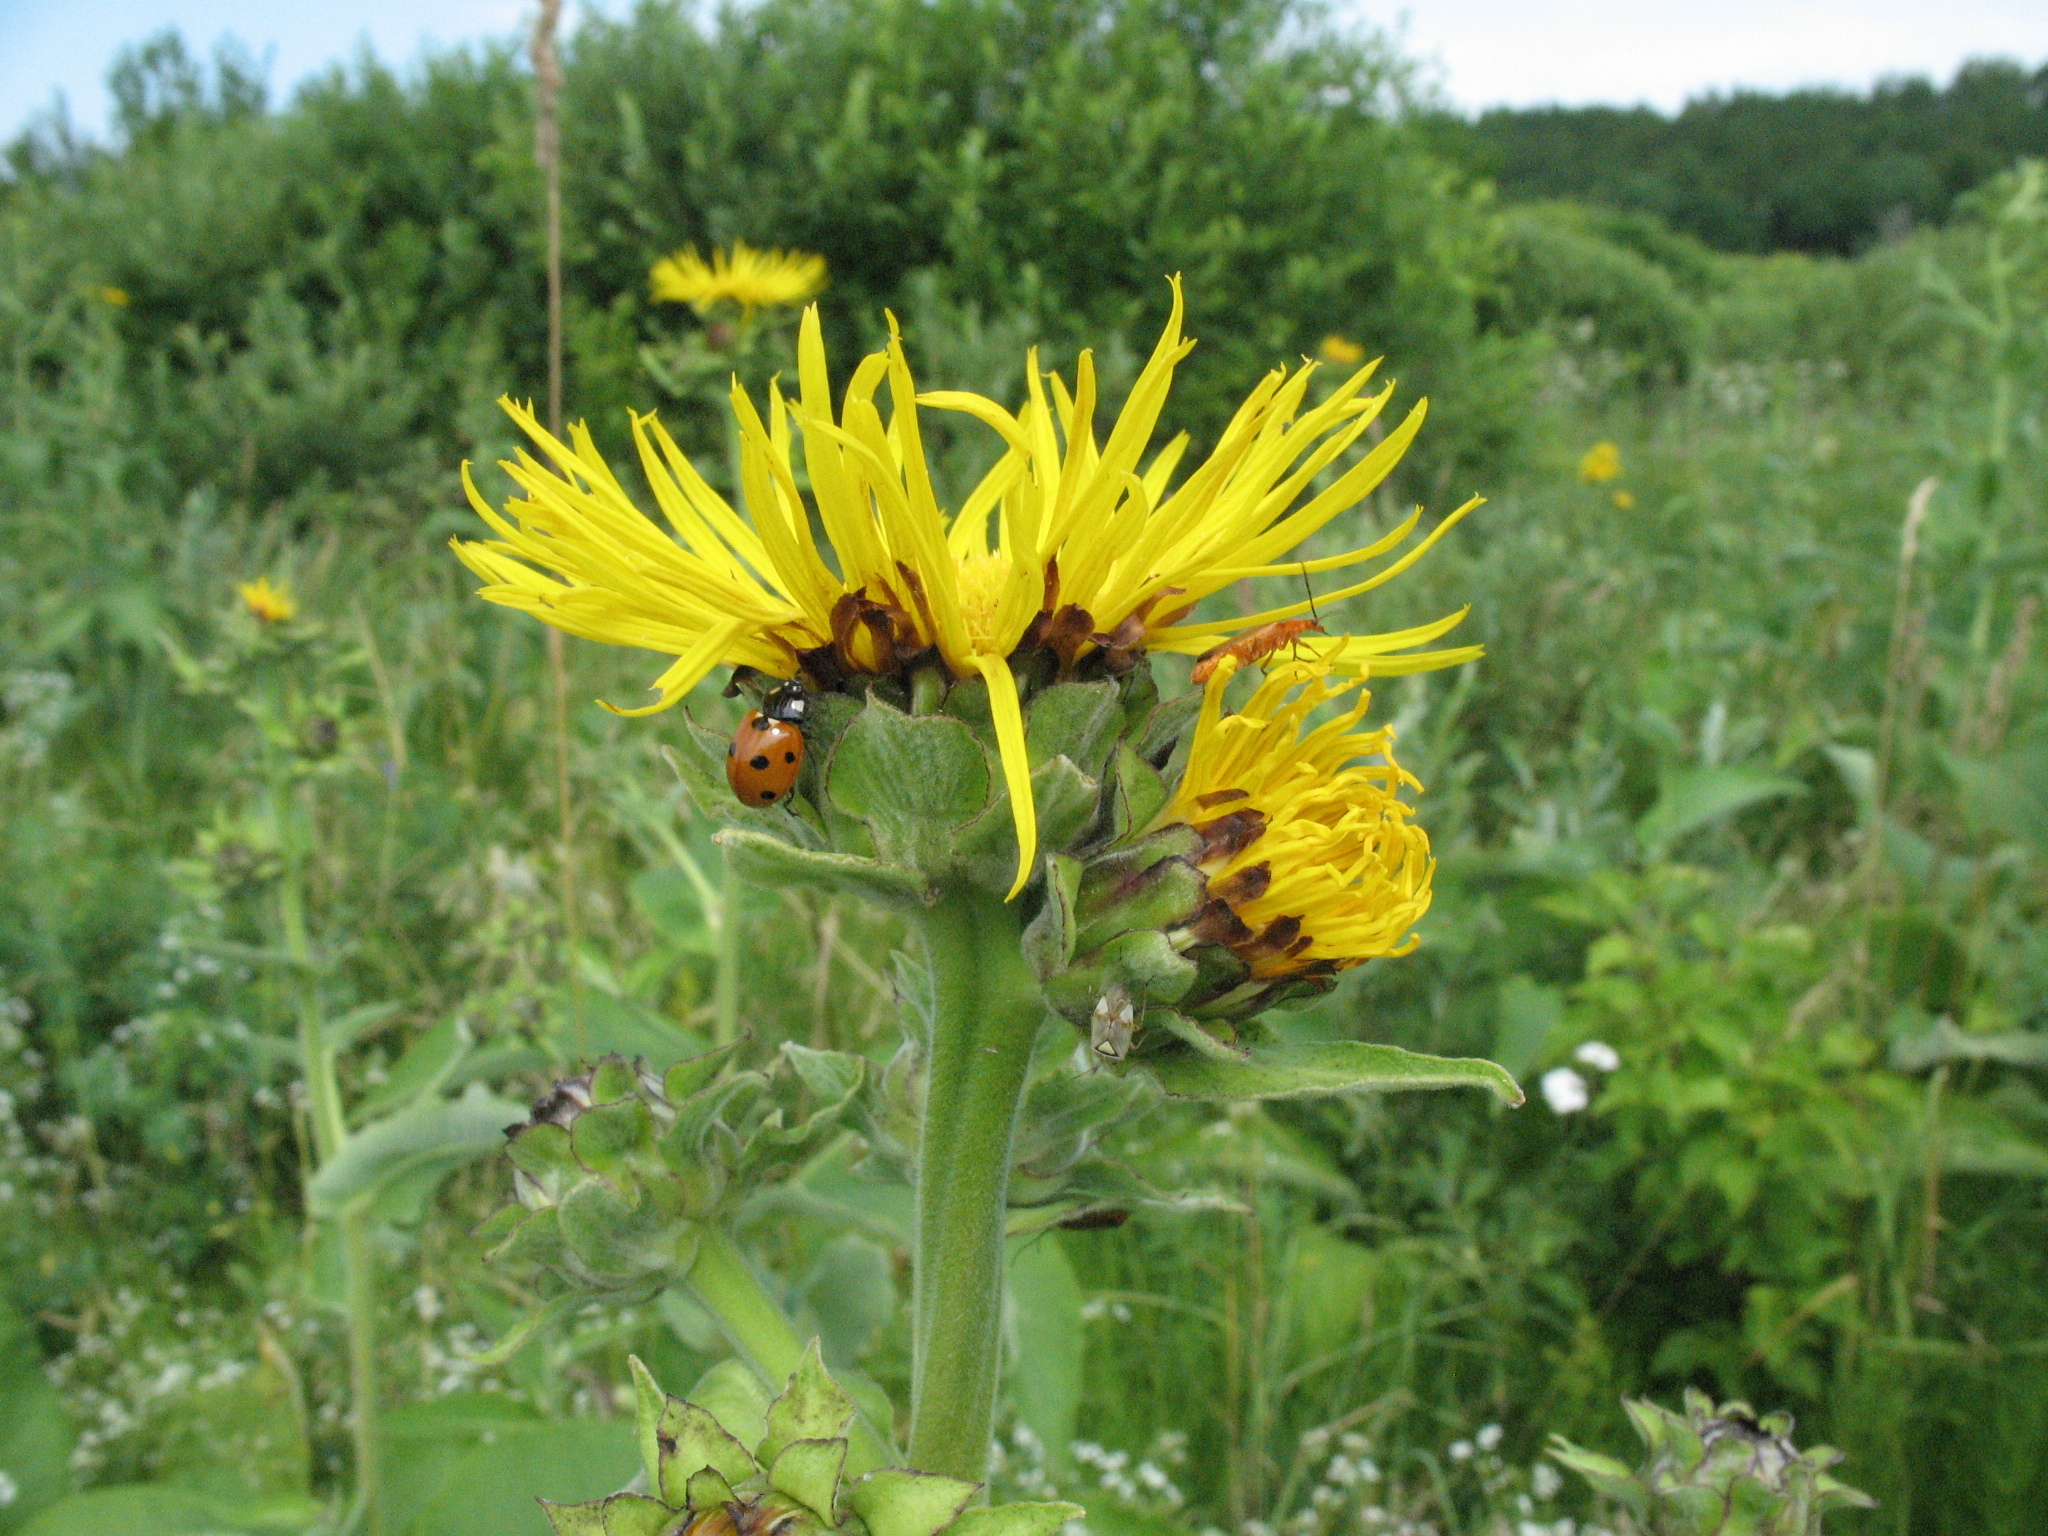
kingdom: Plantae
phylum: Tracheophyta
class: Magnoliopsida
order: Asterales
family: Asteraceae
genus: Inula
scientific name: Inula helenium
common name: Elecampane
